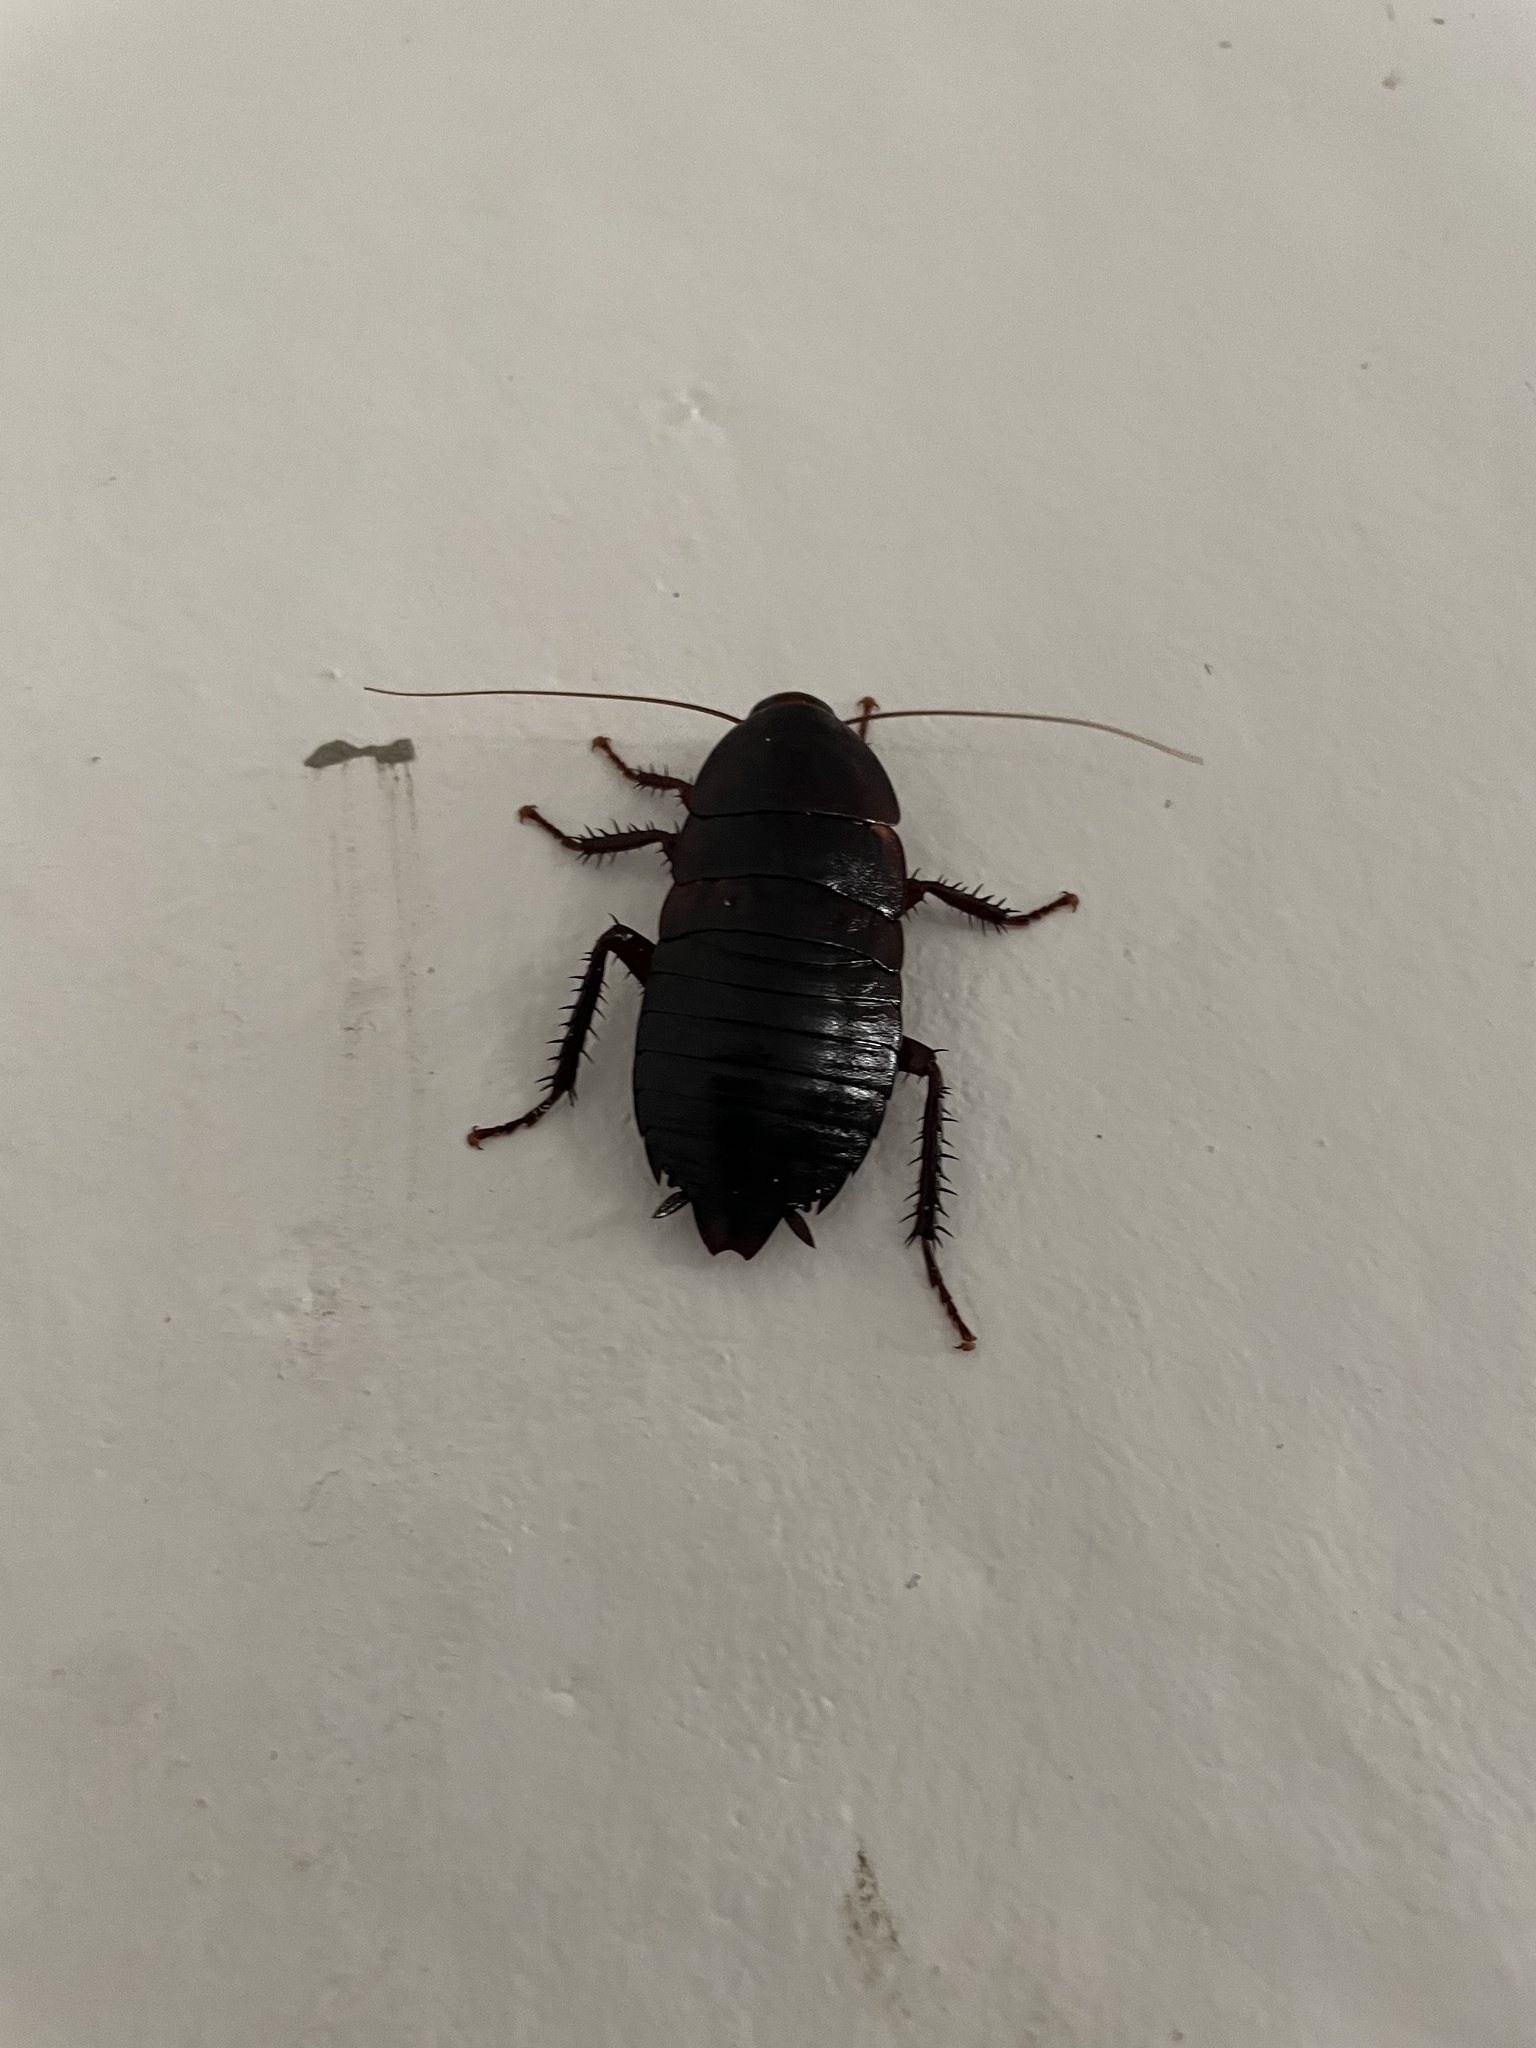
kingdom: Animalia
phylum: Arthropoda
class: Insecta
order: Blattodea
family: Blattidae
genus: Eurycotis
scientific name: Eurycotis floridana
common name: Florida cockroach
